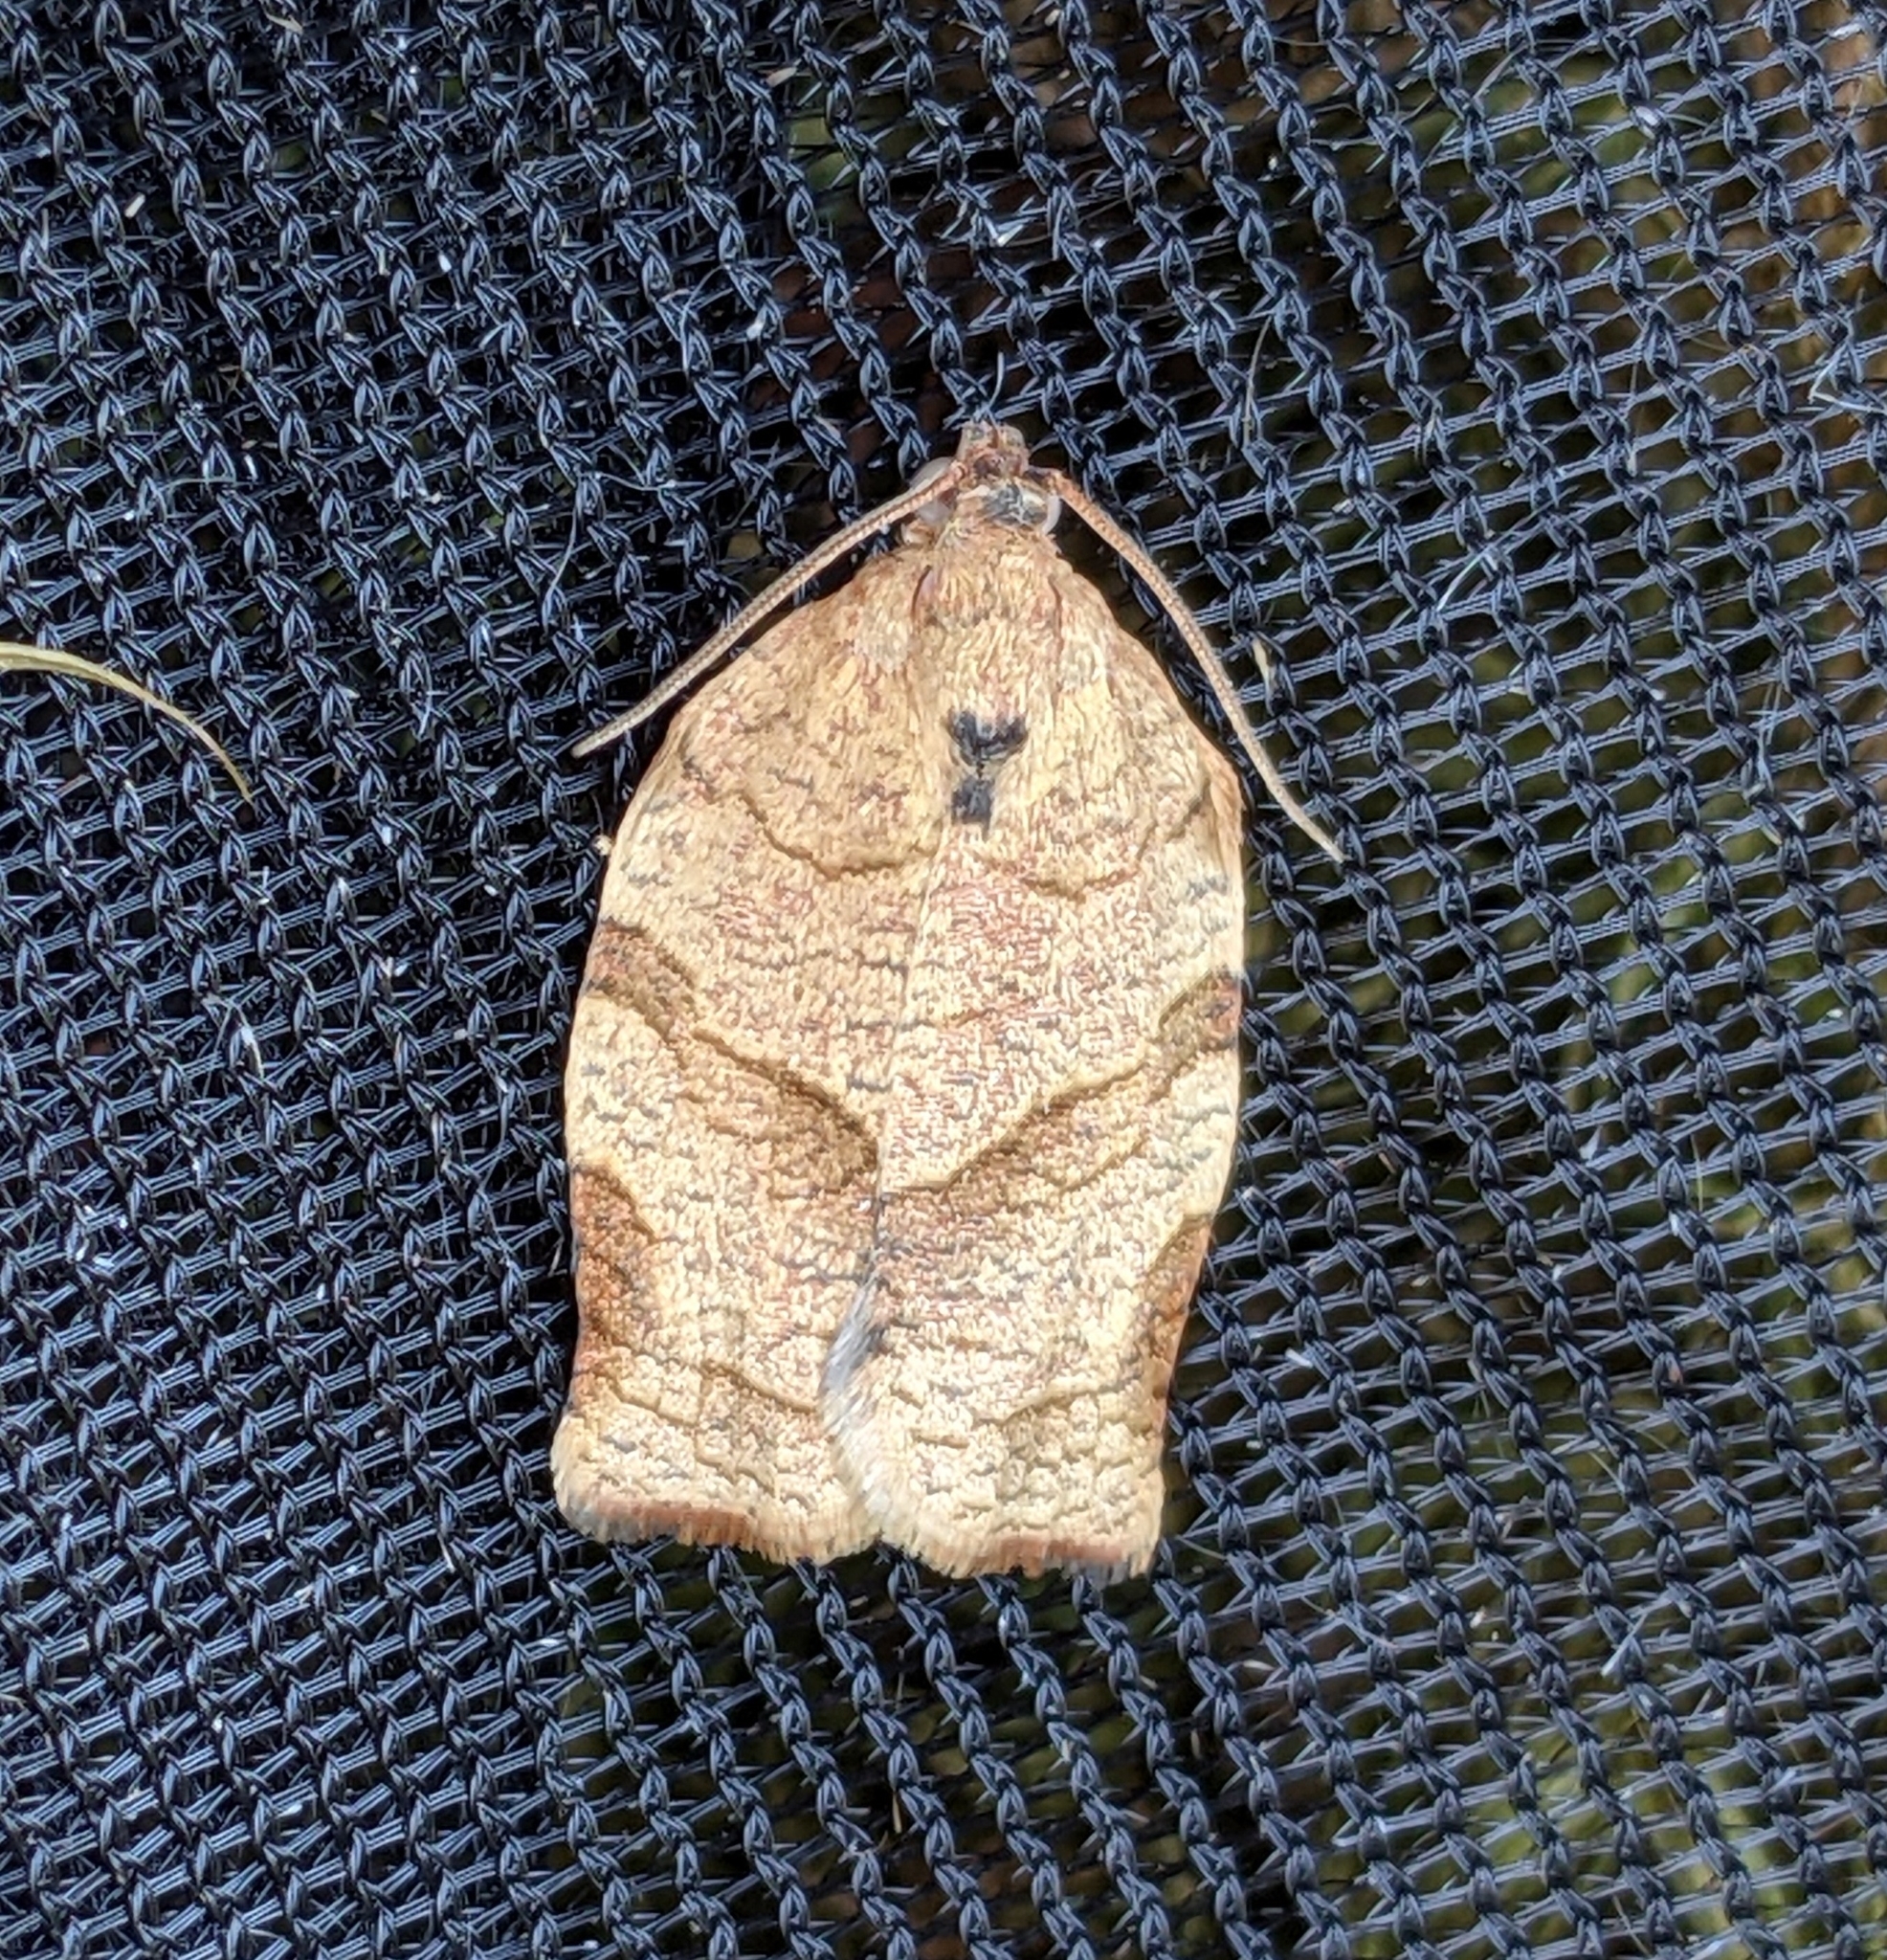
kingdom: Animalia
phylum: Arthropoda
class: Insecta
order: Lepidoptera
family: Tortricidae
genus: Choristoneura
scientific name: Choristoneura rosaceana
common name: Oblique-banded leafroller moth
